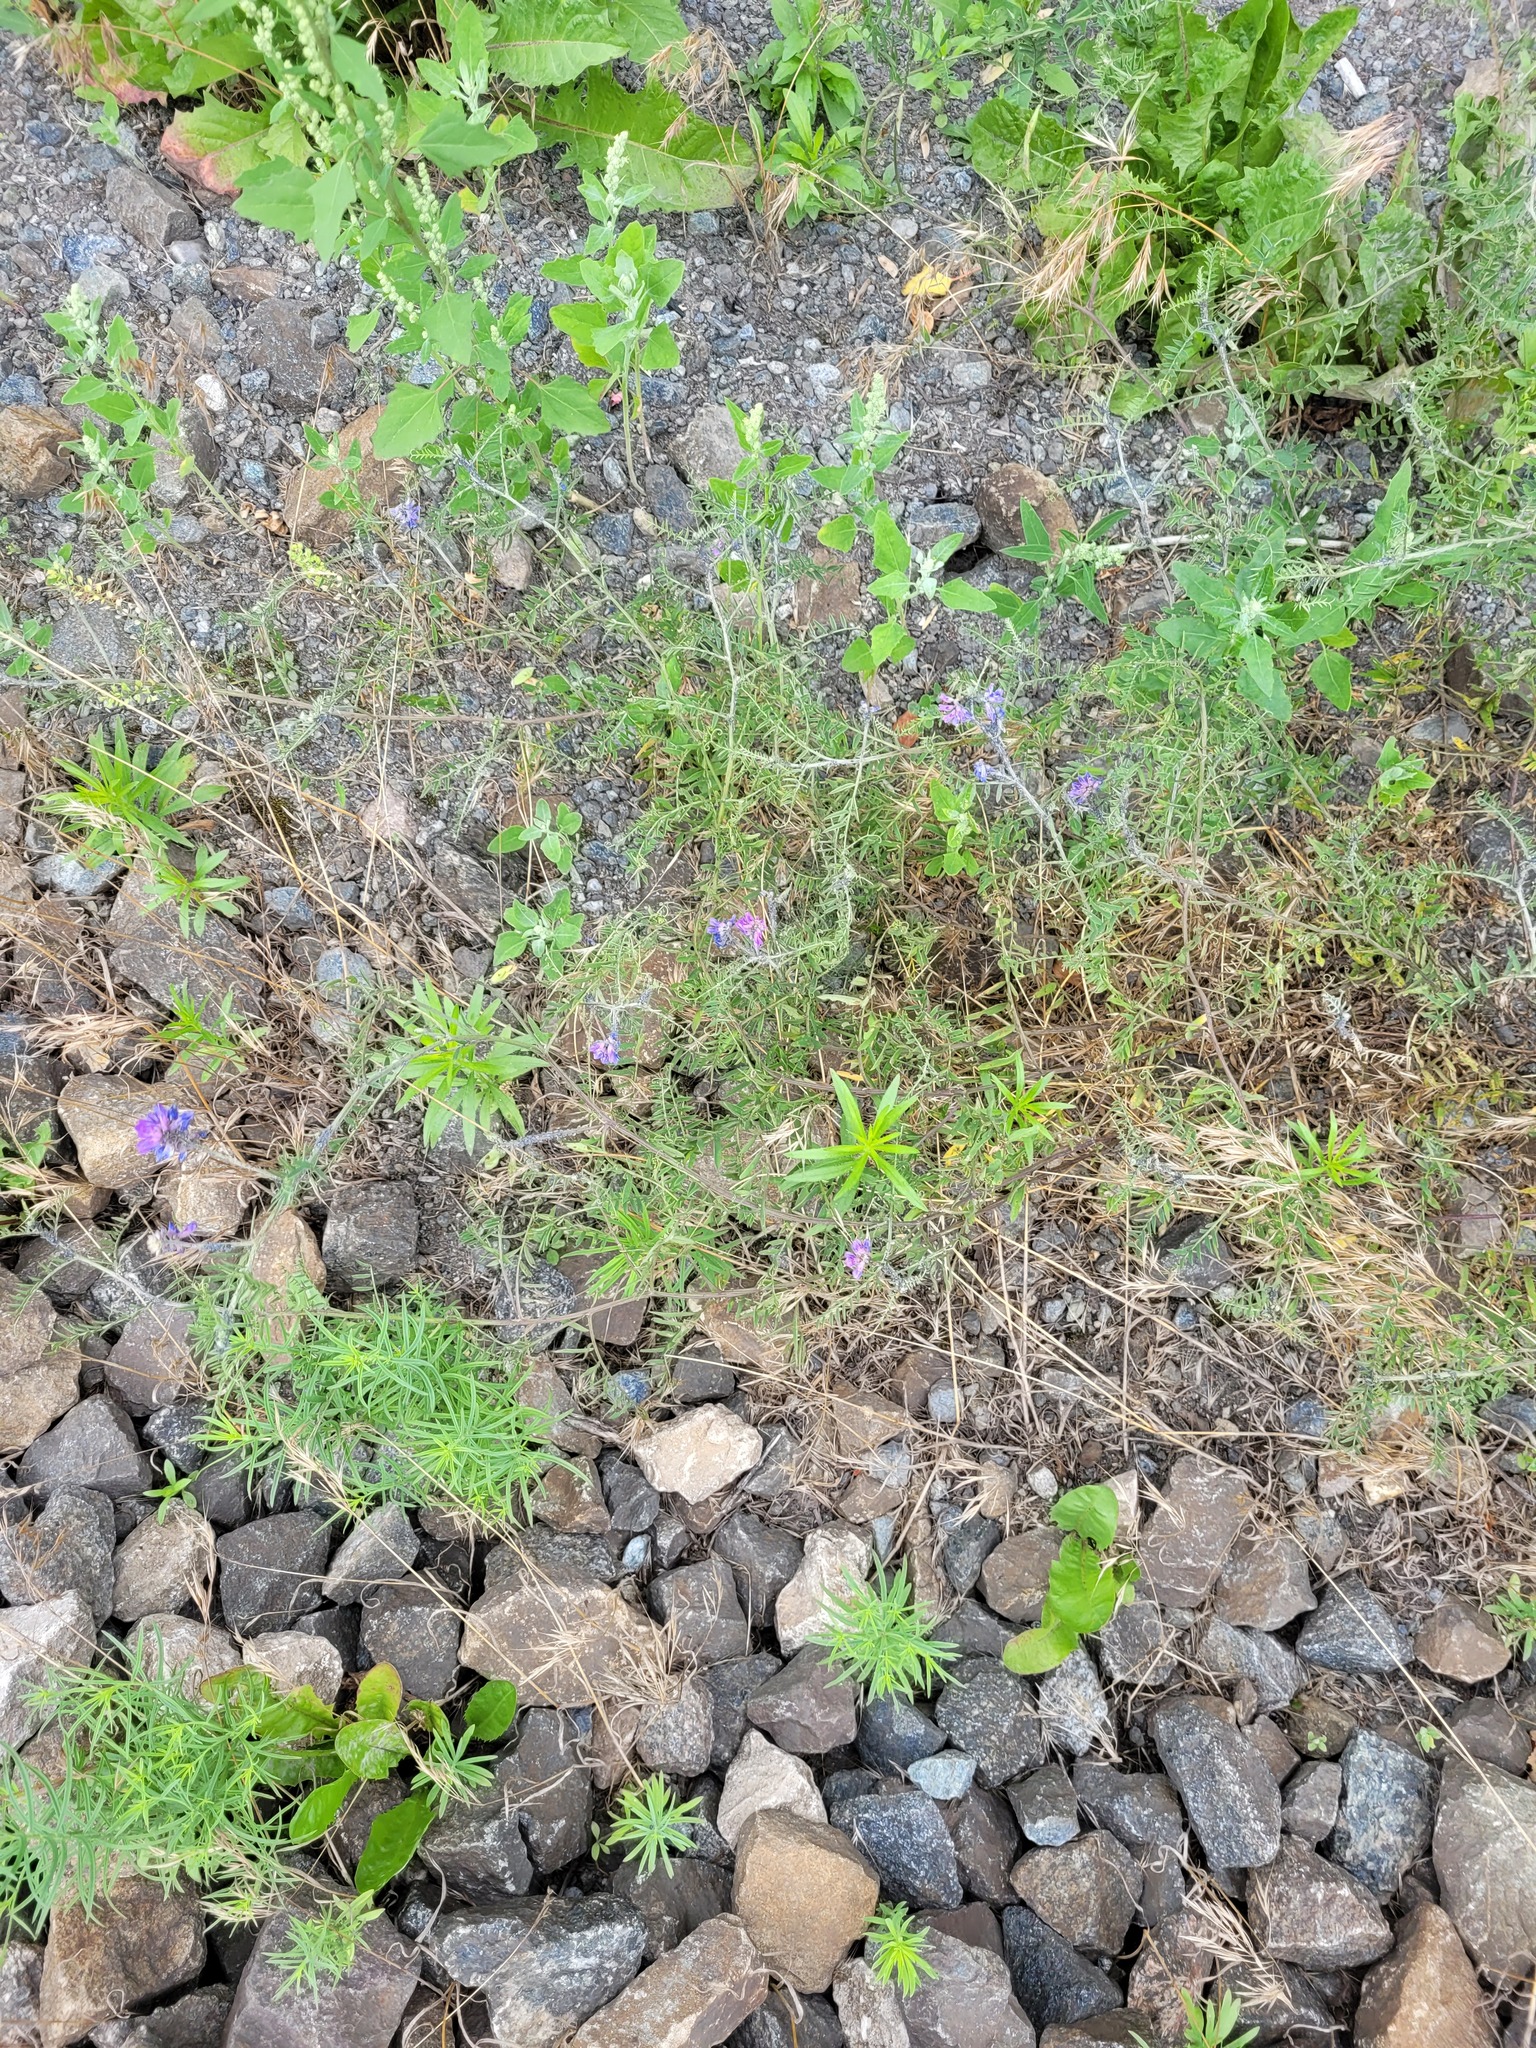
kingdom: Plantae
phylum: Tracheophyta
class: Magnoliopsida
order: Fabales
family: Fabaceae
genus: Vicia
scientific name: Vicia cracca
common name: Bird vetch
